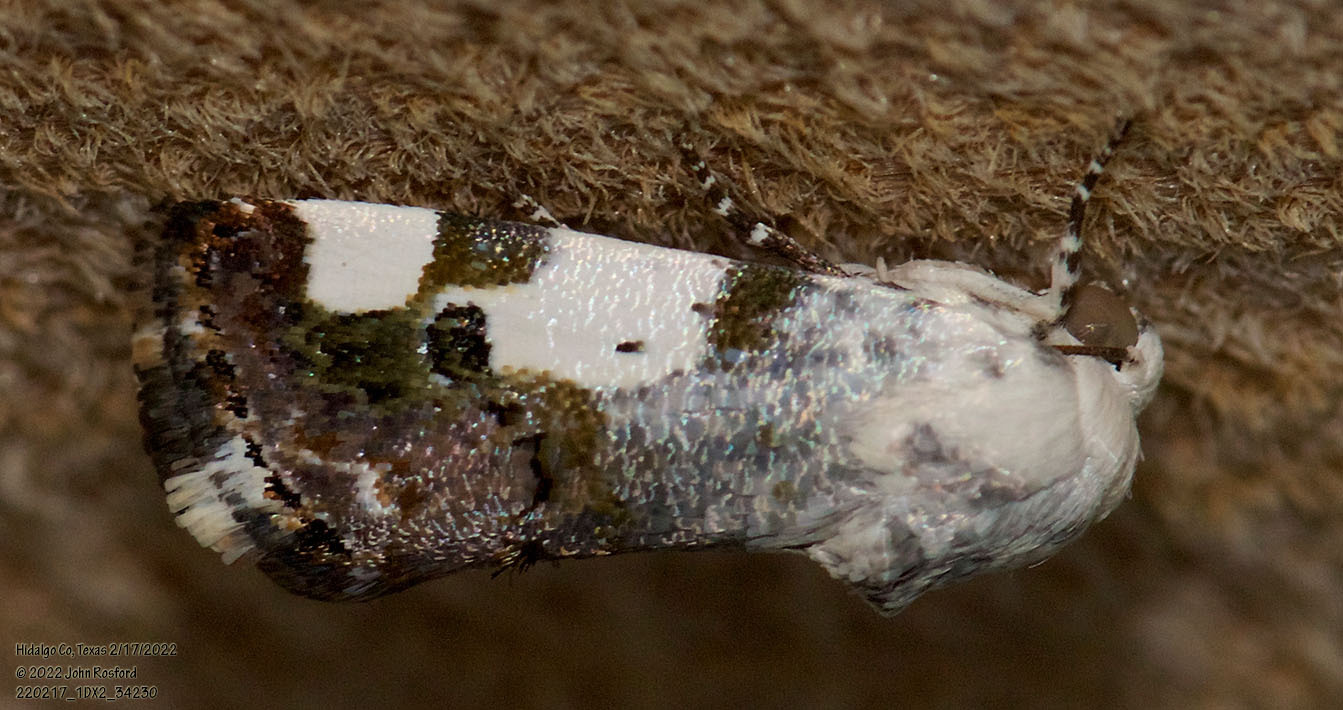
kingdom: Animalia
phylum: Arthropoda
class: Insecta
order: Lepidoptera
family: Noctuidae
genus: Acontia
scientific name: Acontia aprica
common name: Nun
